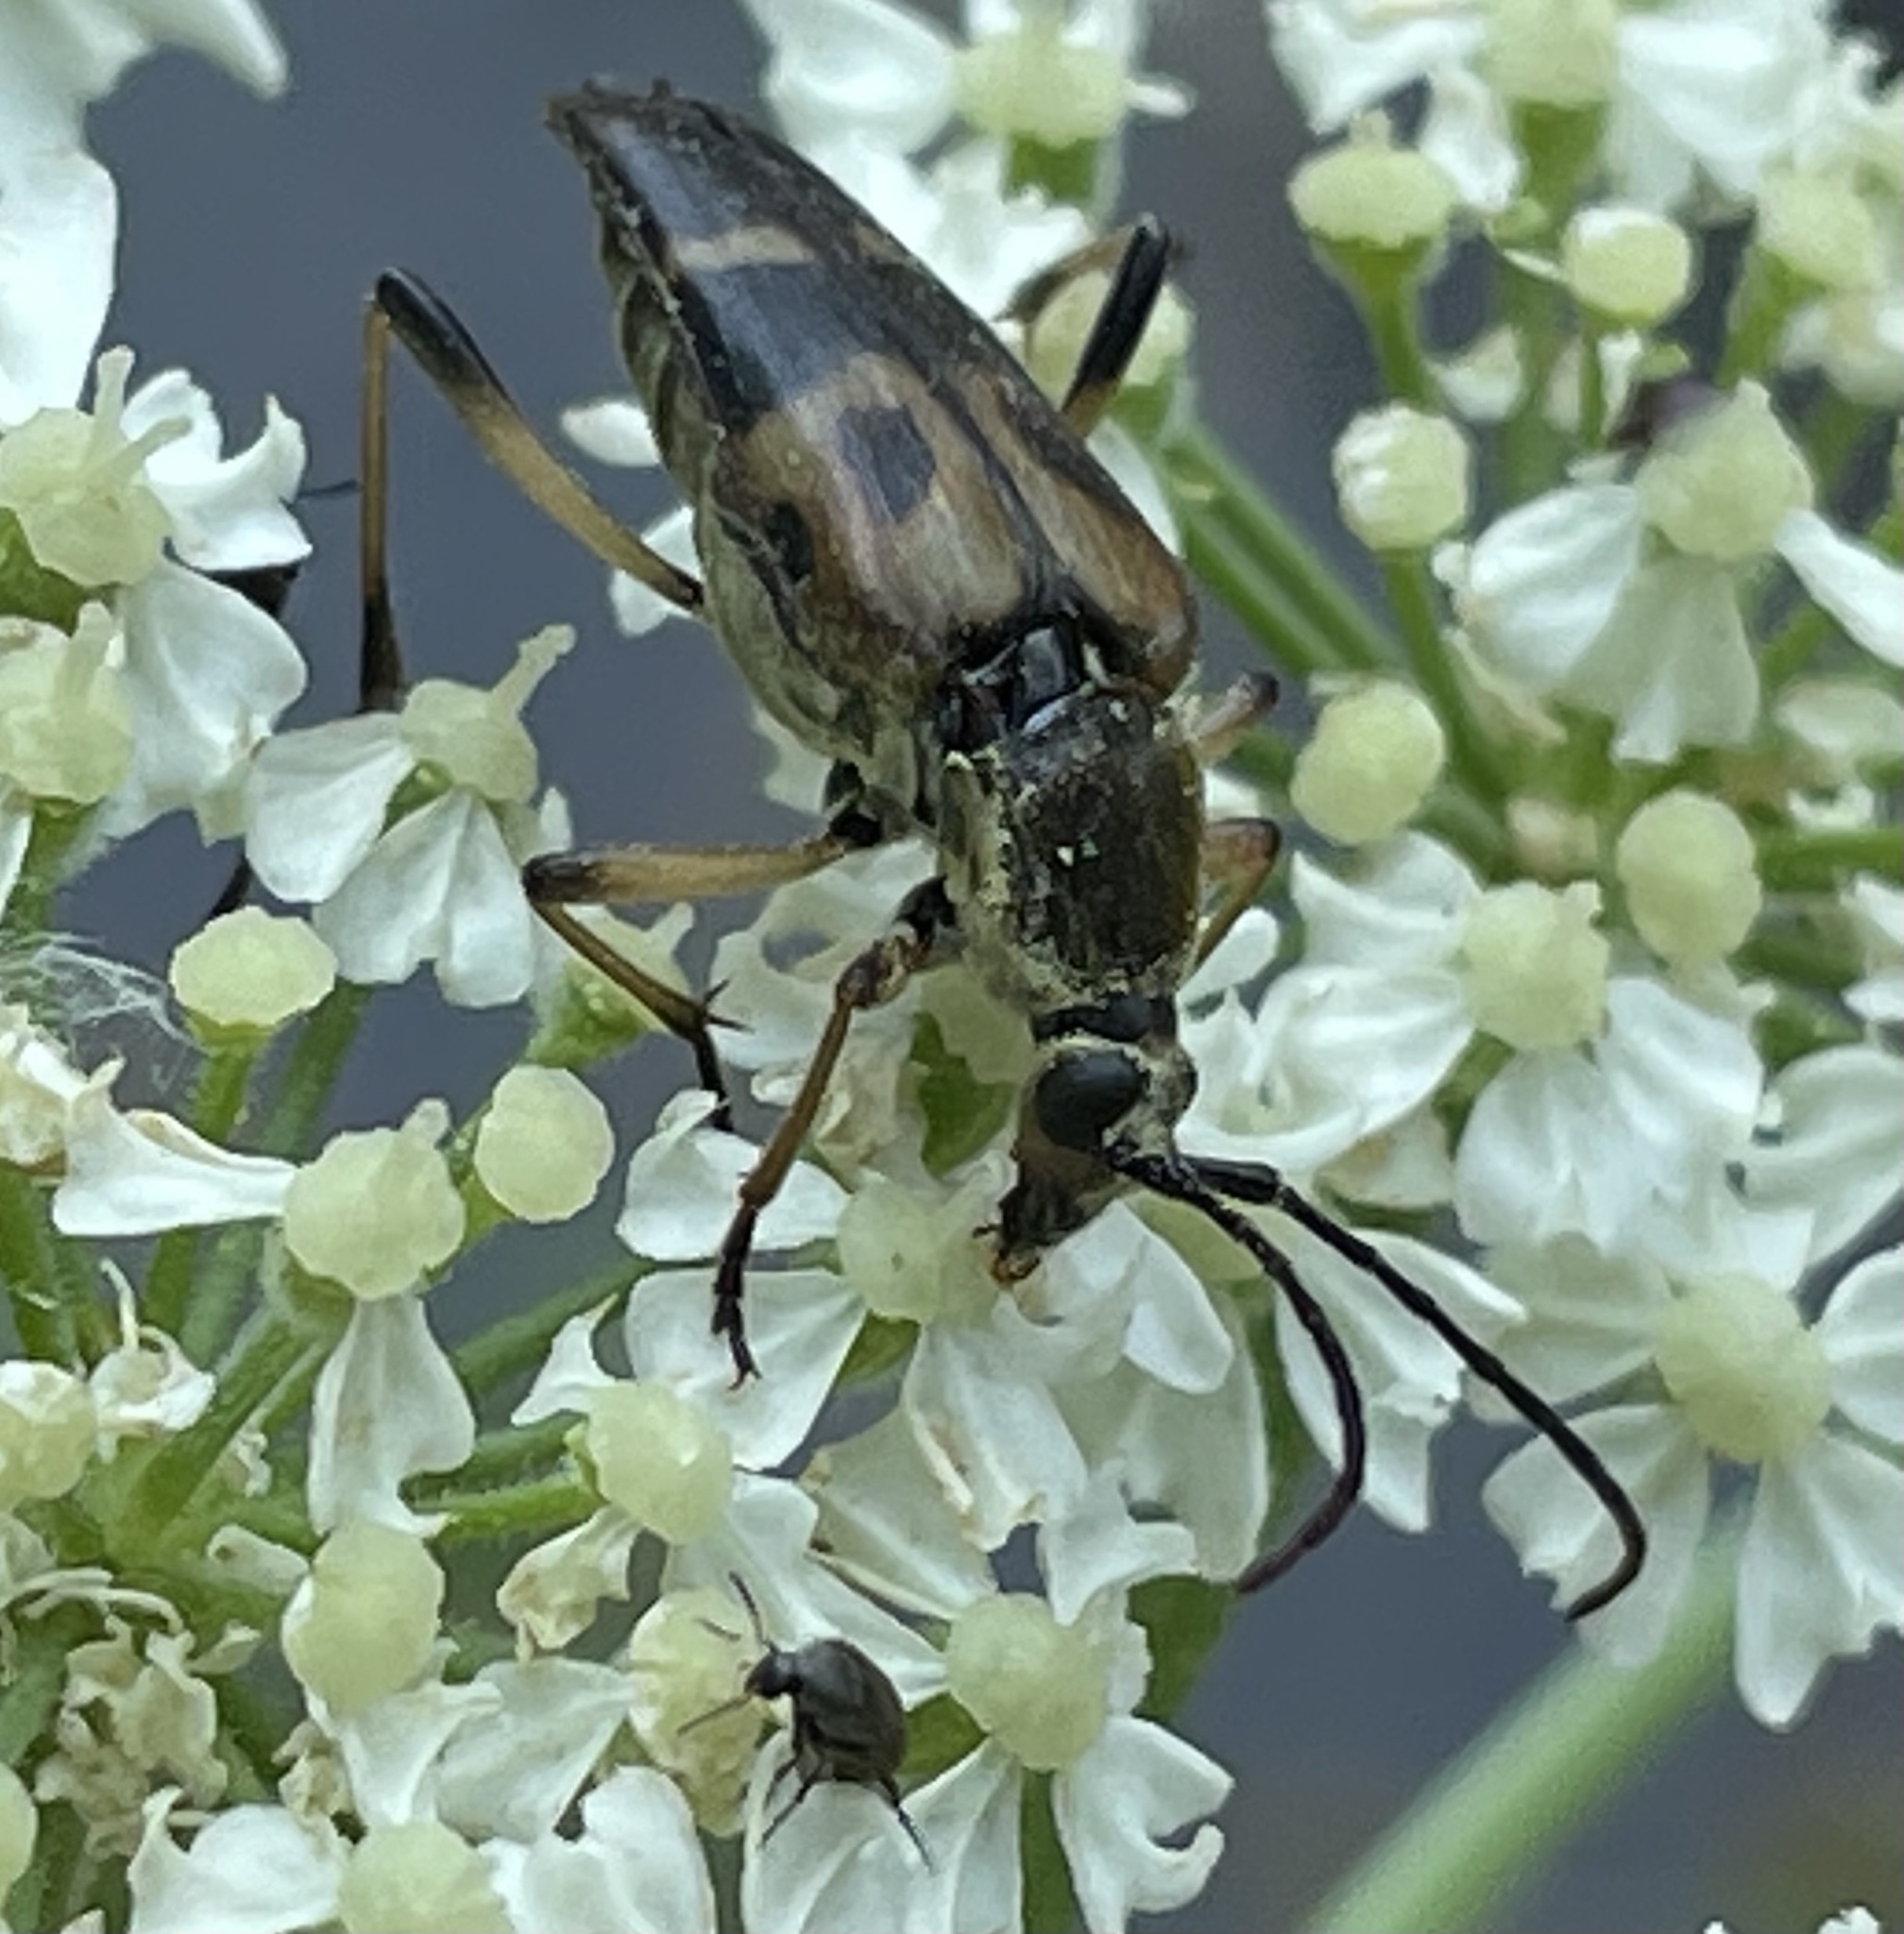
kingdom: Animalia
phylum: Arthropoda
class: Insecta
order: Coleoptera
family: Cerambycidae
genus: Etorofus
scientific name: Etorofus obliteratus
